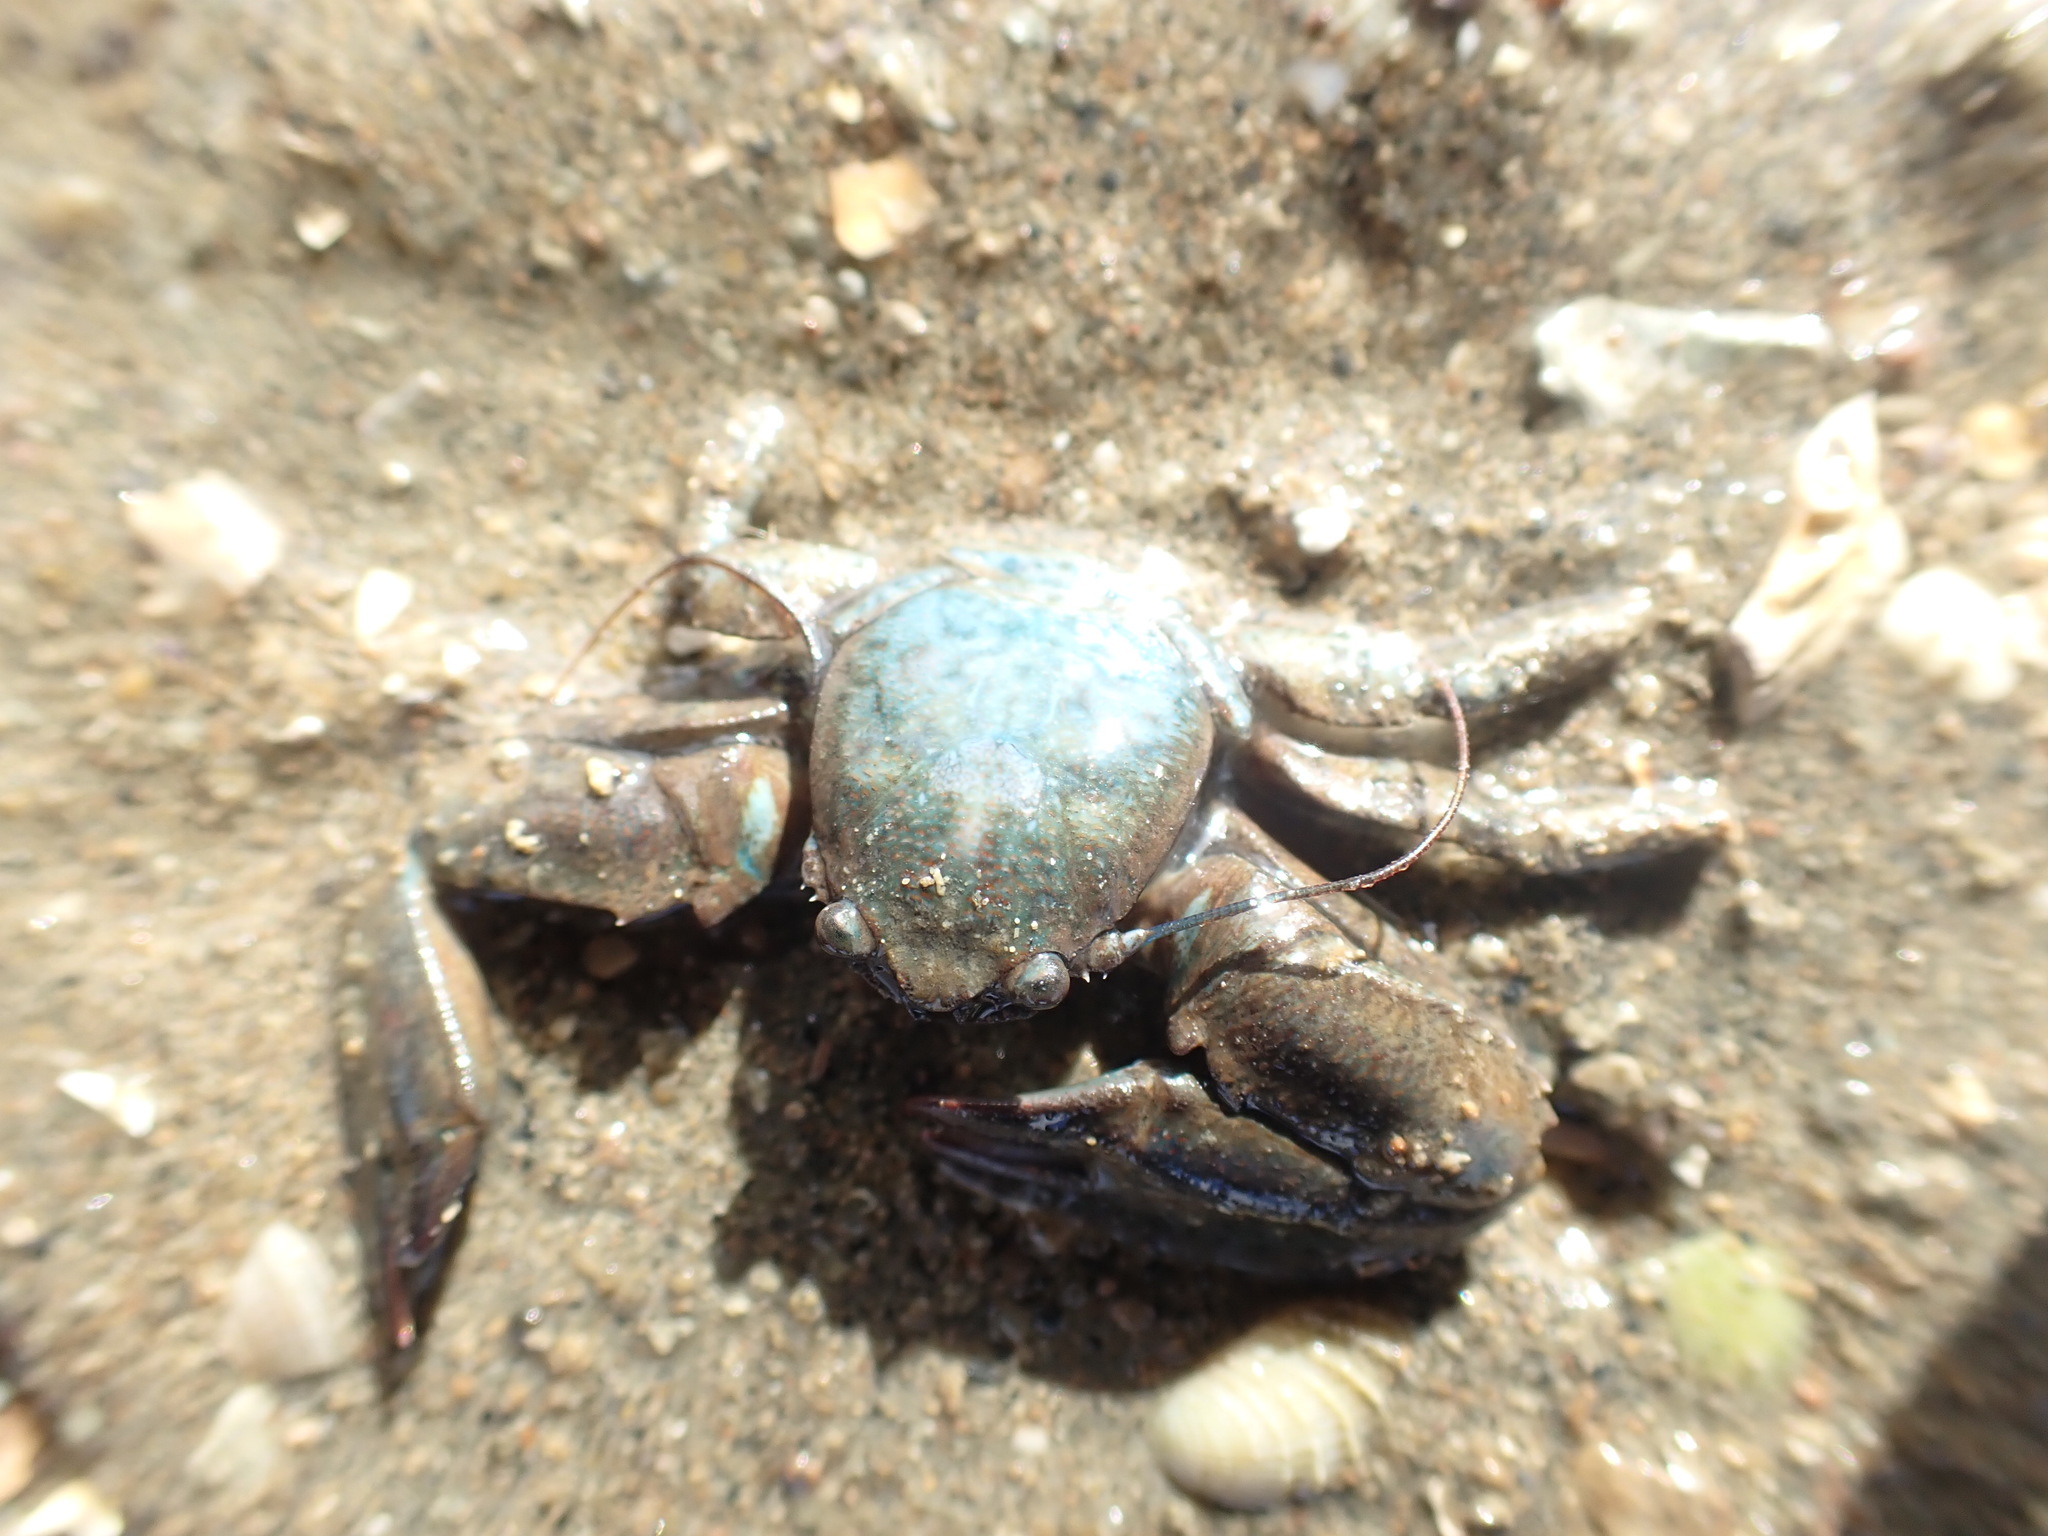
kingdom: Animalia
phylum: Arthropoda
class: Malacostraca
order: Decapoda
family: Porcellanidae
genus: Petrolisthes
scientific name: Petrolisthes elongatus
